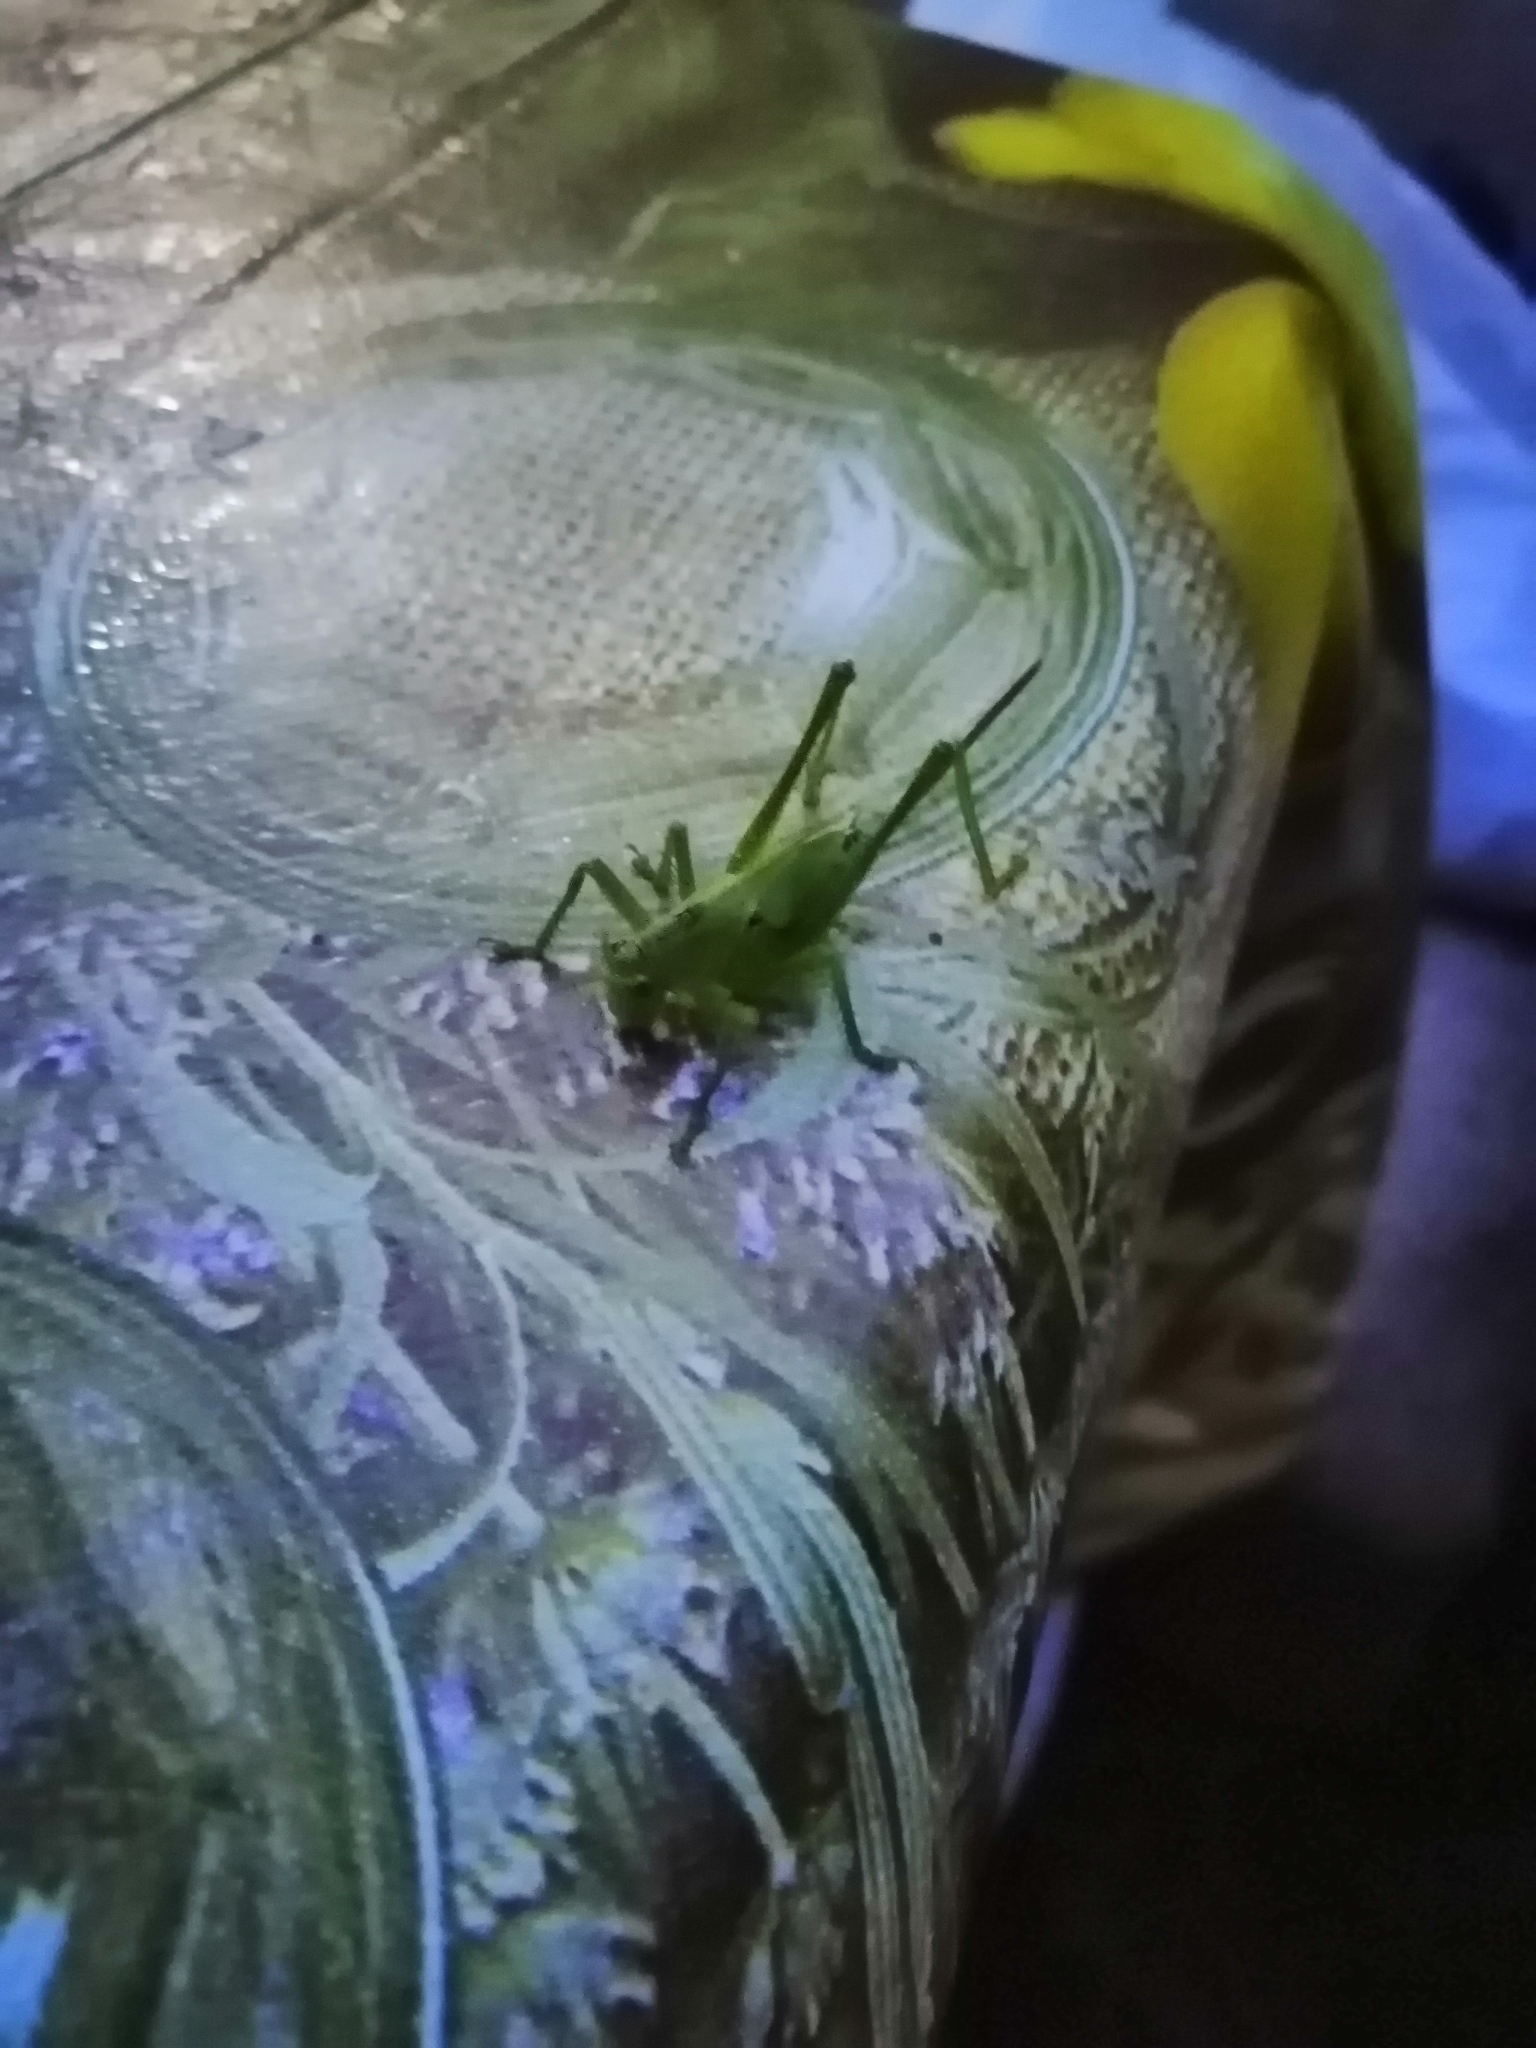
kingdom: Animalia
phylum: Arthropoda
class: Insecta
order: Orthoptera
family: Tettigoniidae
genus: Tettigonia
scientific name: Tettigonia viridissima
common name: Great green bush-cricket
